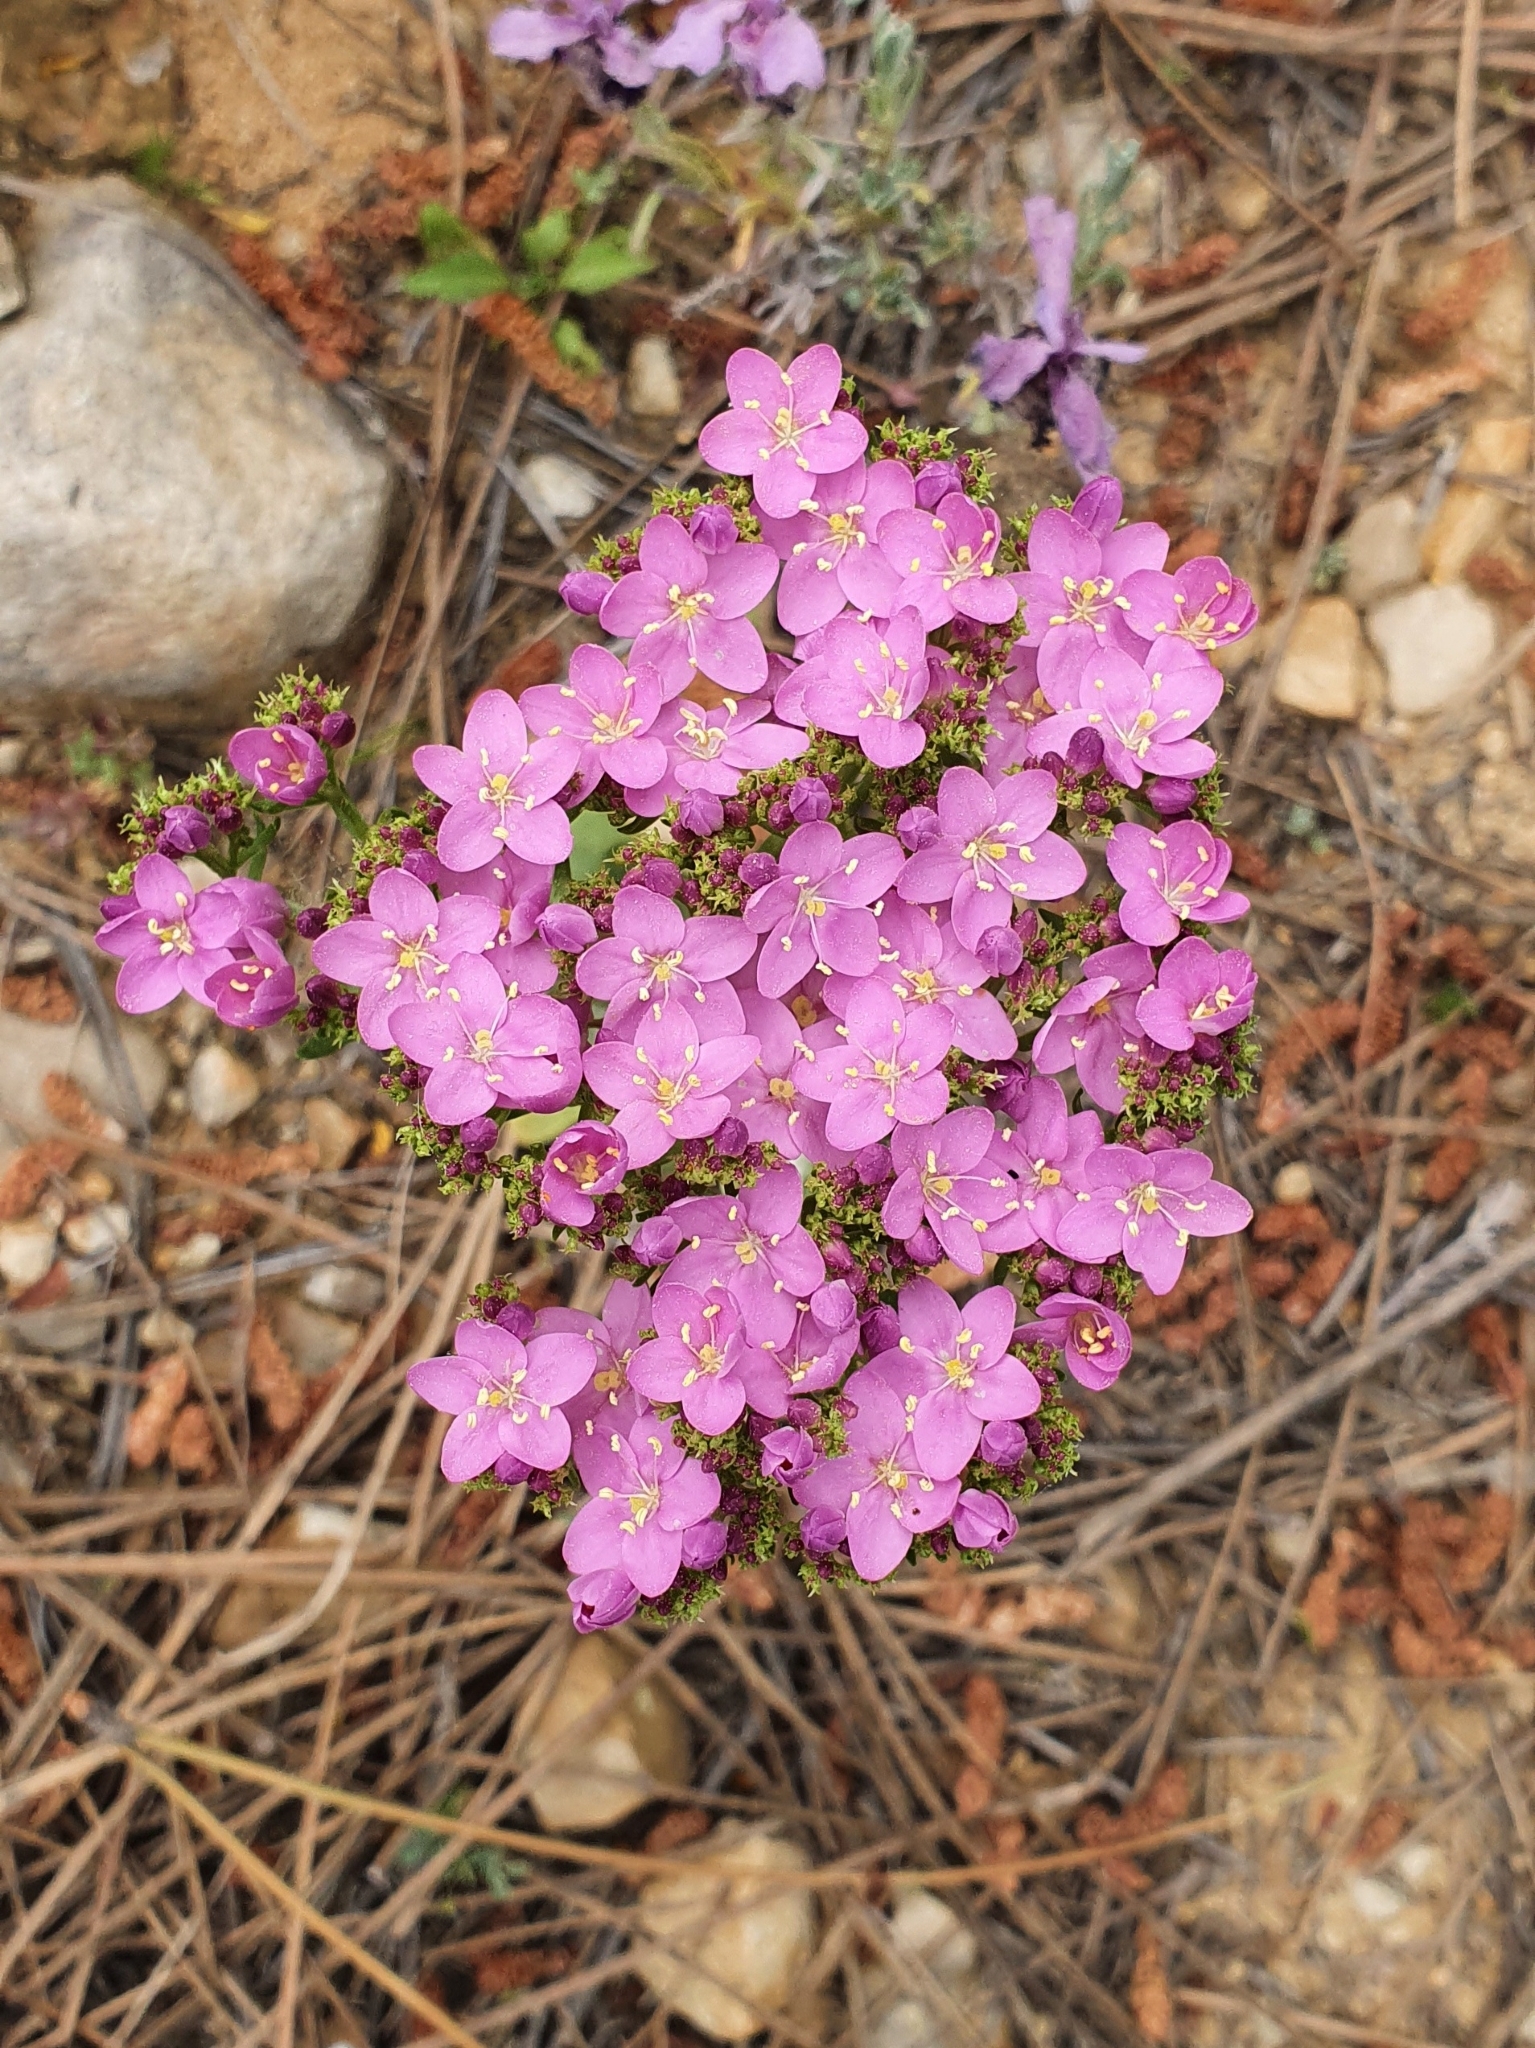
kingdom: Plantae
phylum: Tracheophyta
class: Magnoliopsida
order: Gentianales
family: Gentianaceae
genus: Centaurium
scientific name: Centaurium erythraea
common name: Common centaury
